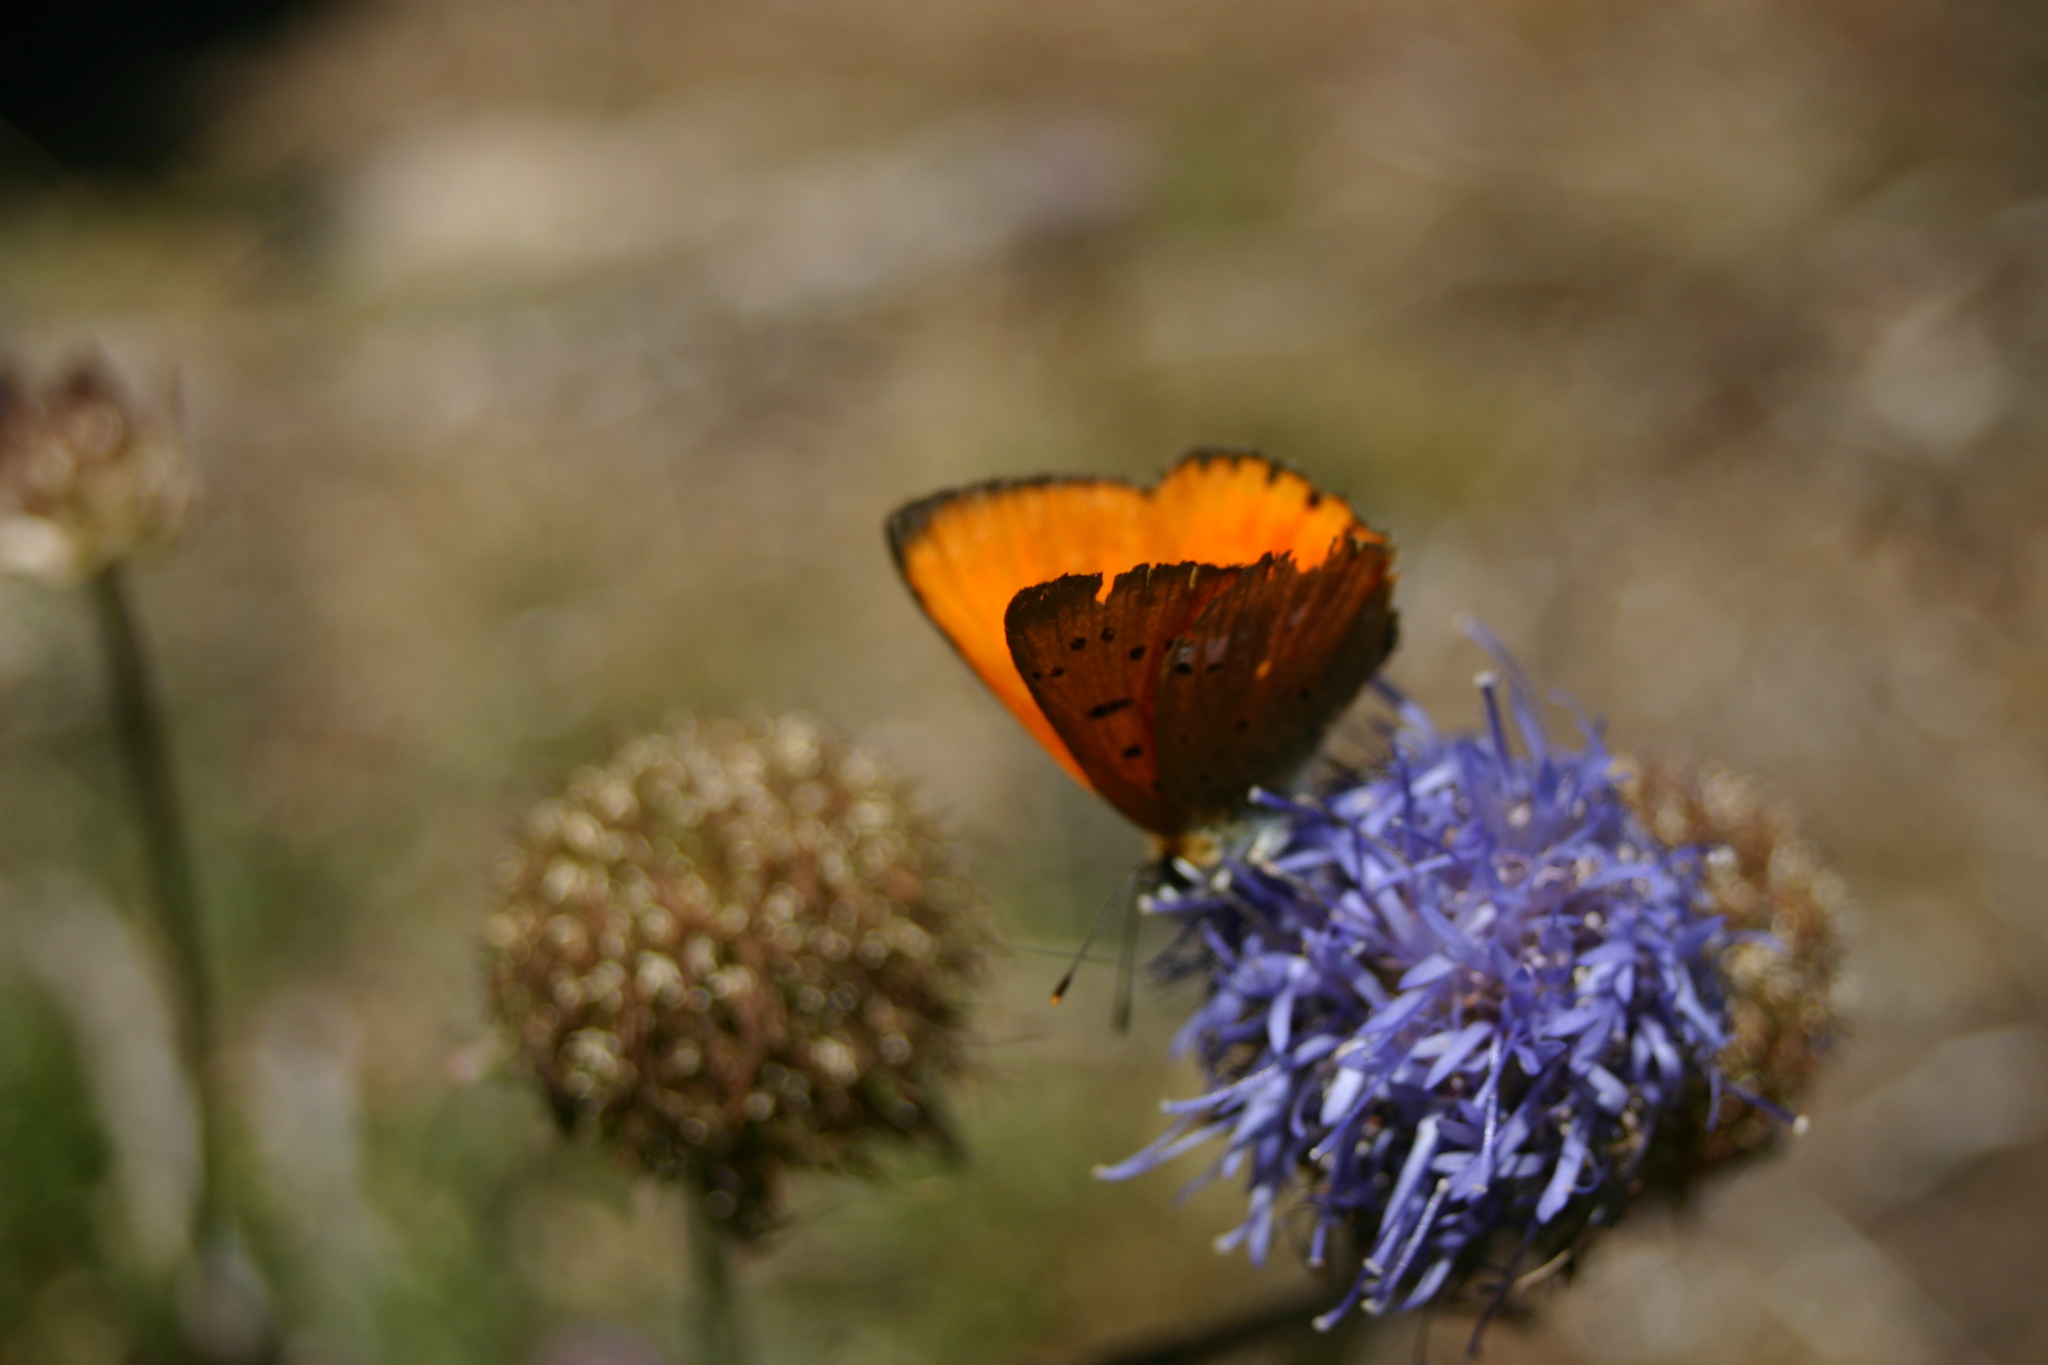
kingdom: Animalia
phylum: Arthropoda
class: Insecta
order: Lepidoptera
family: Lycaenidae
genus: Lycaena
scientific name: Lycaena virgaureae
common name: Scarce copper
